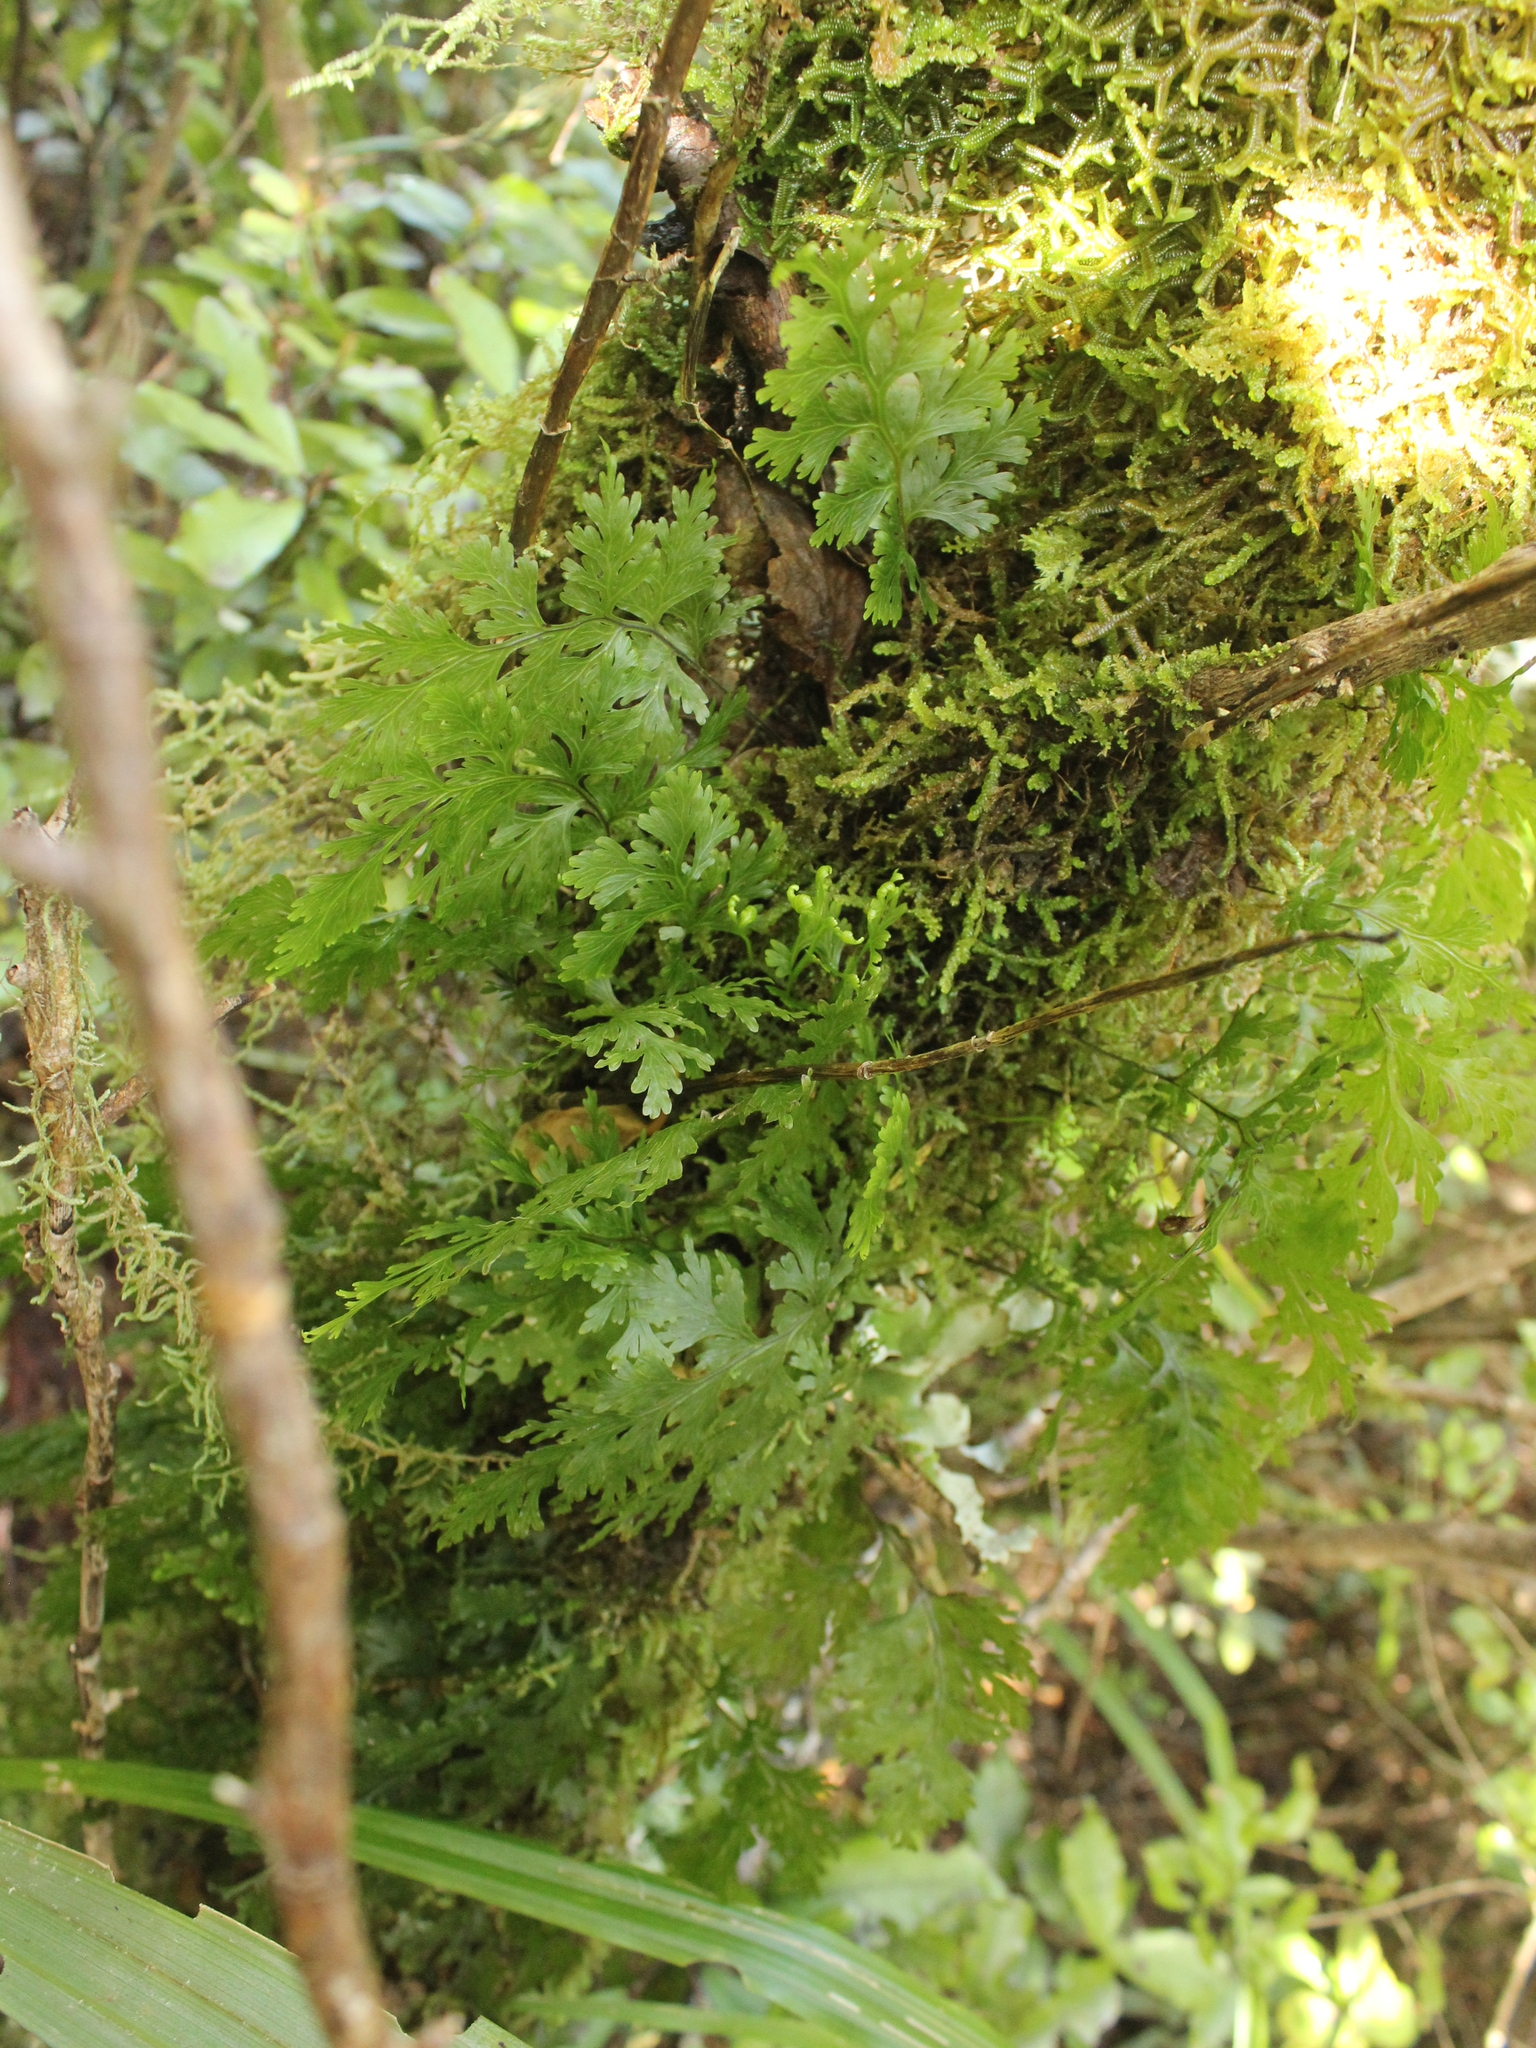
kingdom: Plantae
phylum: Tracheophyta
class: Polypodiopsida
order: Hymenophyllales
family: Hymenophyllaceae
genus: Hymenophyllum
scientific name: Hymenophyllum dilatatum
